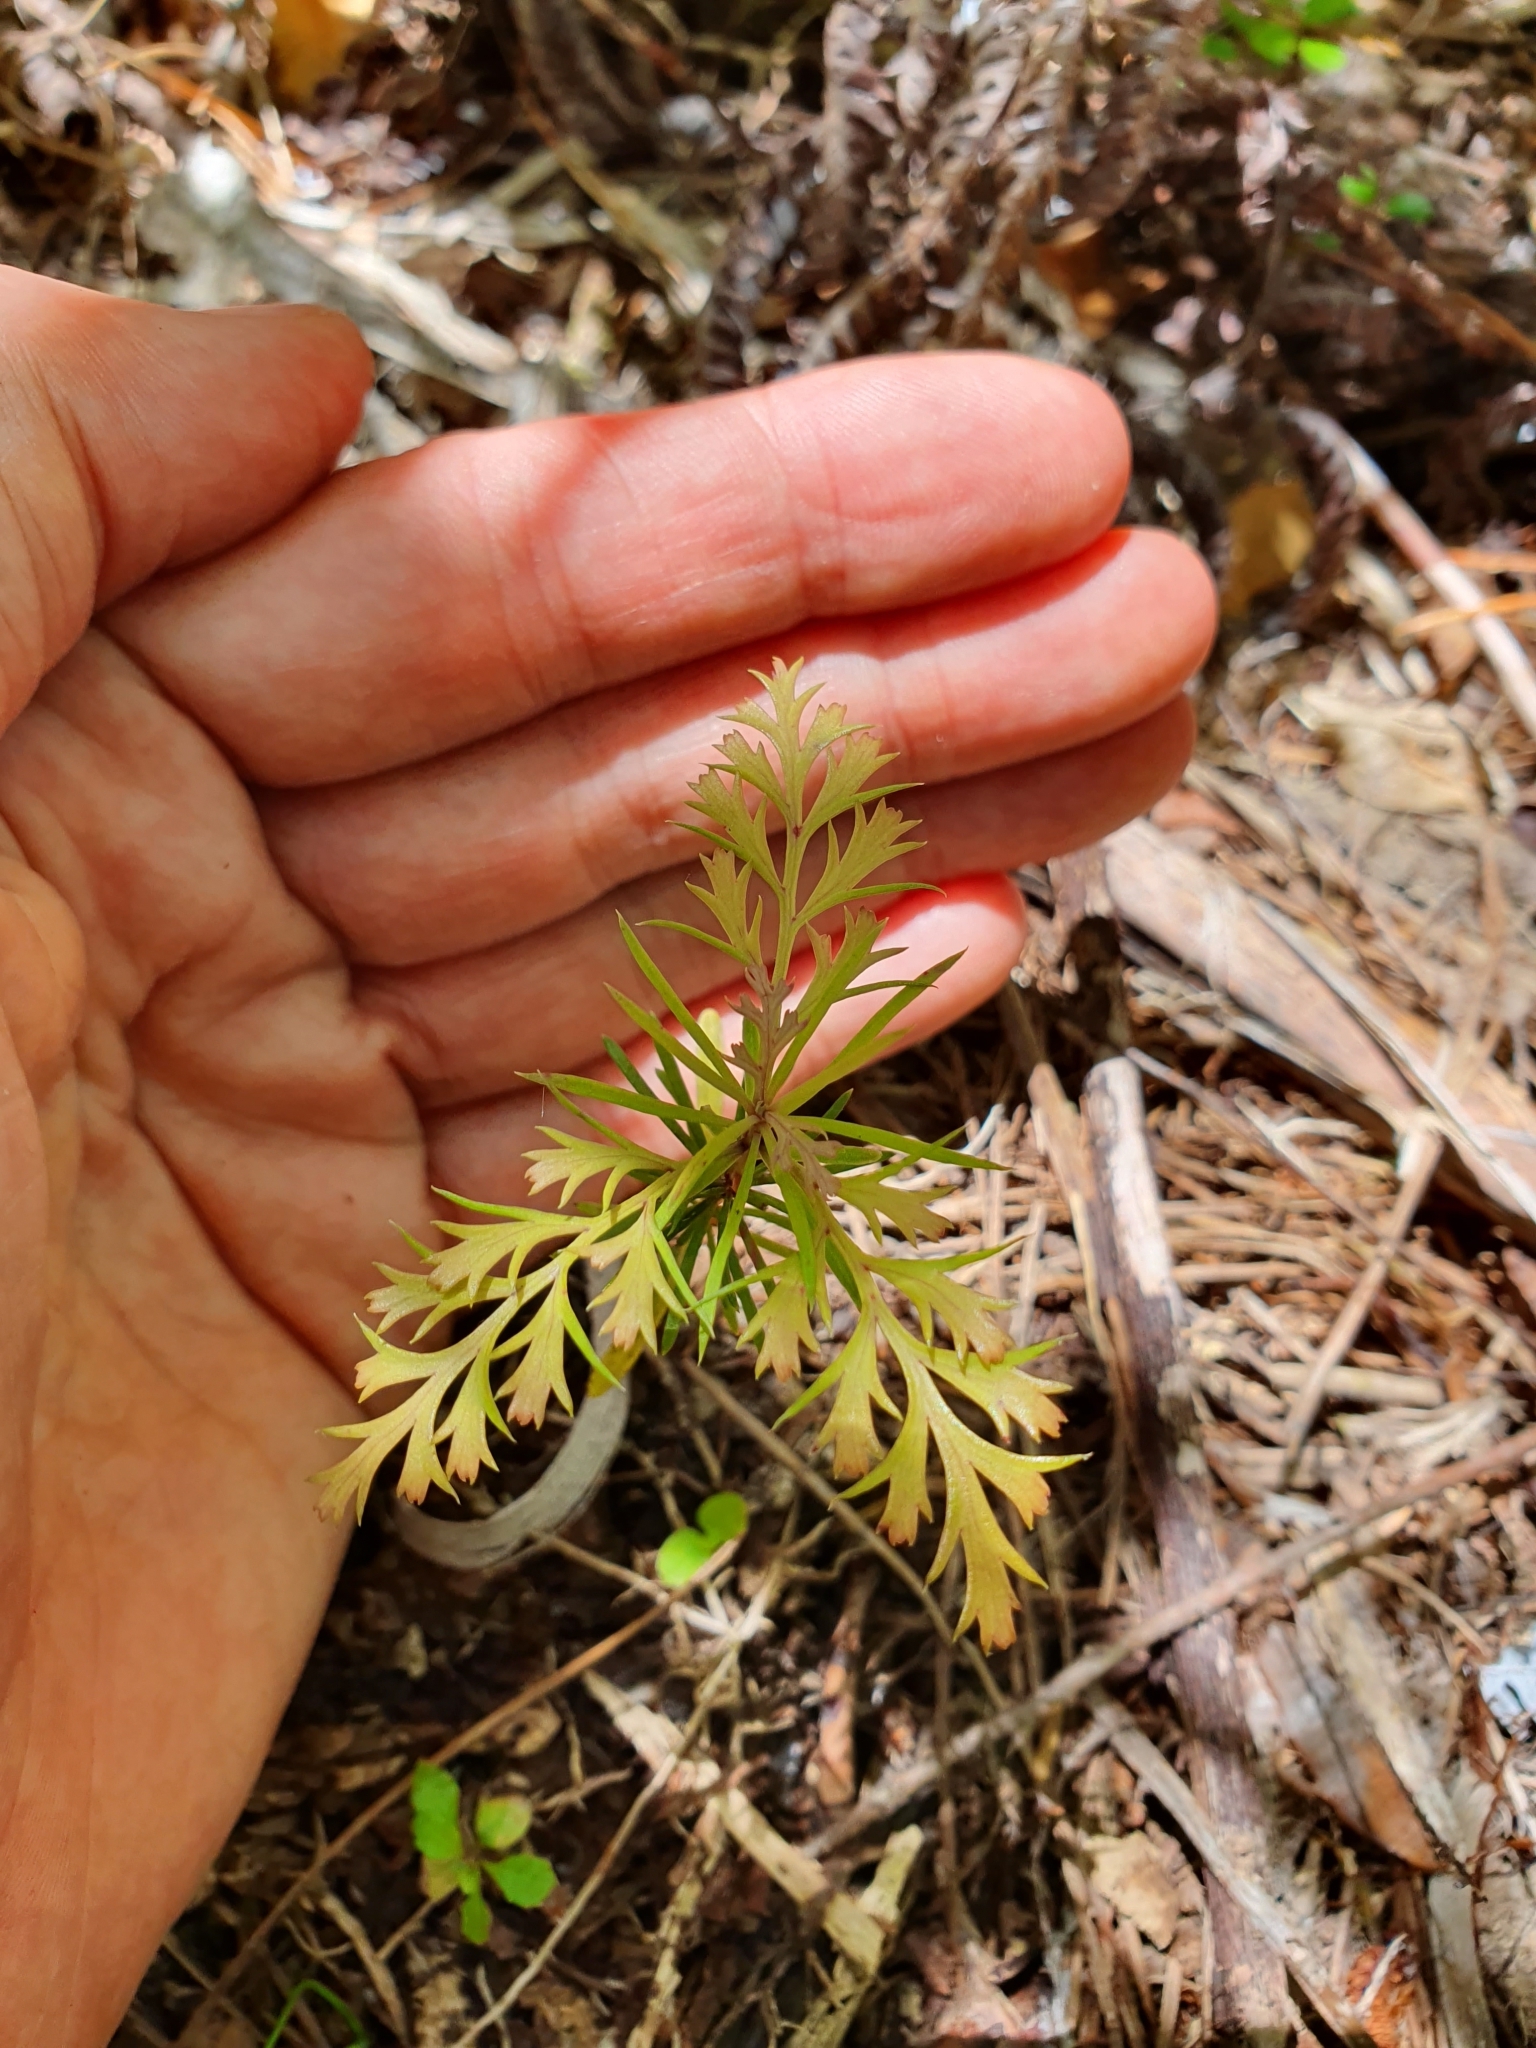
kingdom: Plantae
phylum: Tracheophyta
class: Pinopsida
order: Pinales
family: Phyllocladaceae
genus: Phyllocladus
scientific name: Phyllocladus trichomanoides
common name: Celery pine
